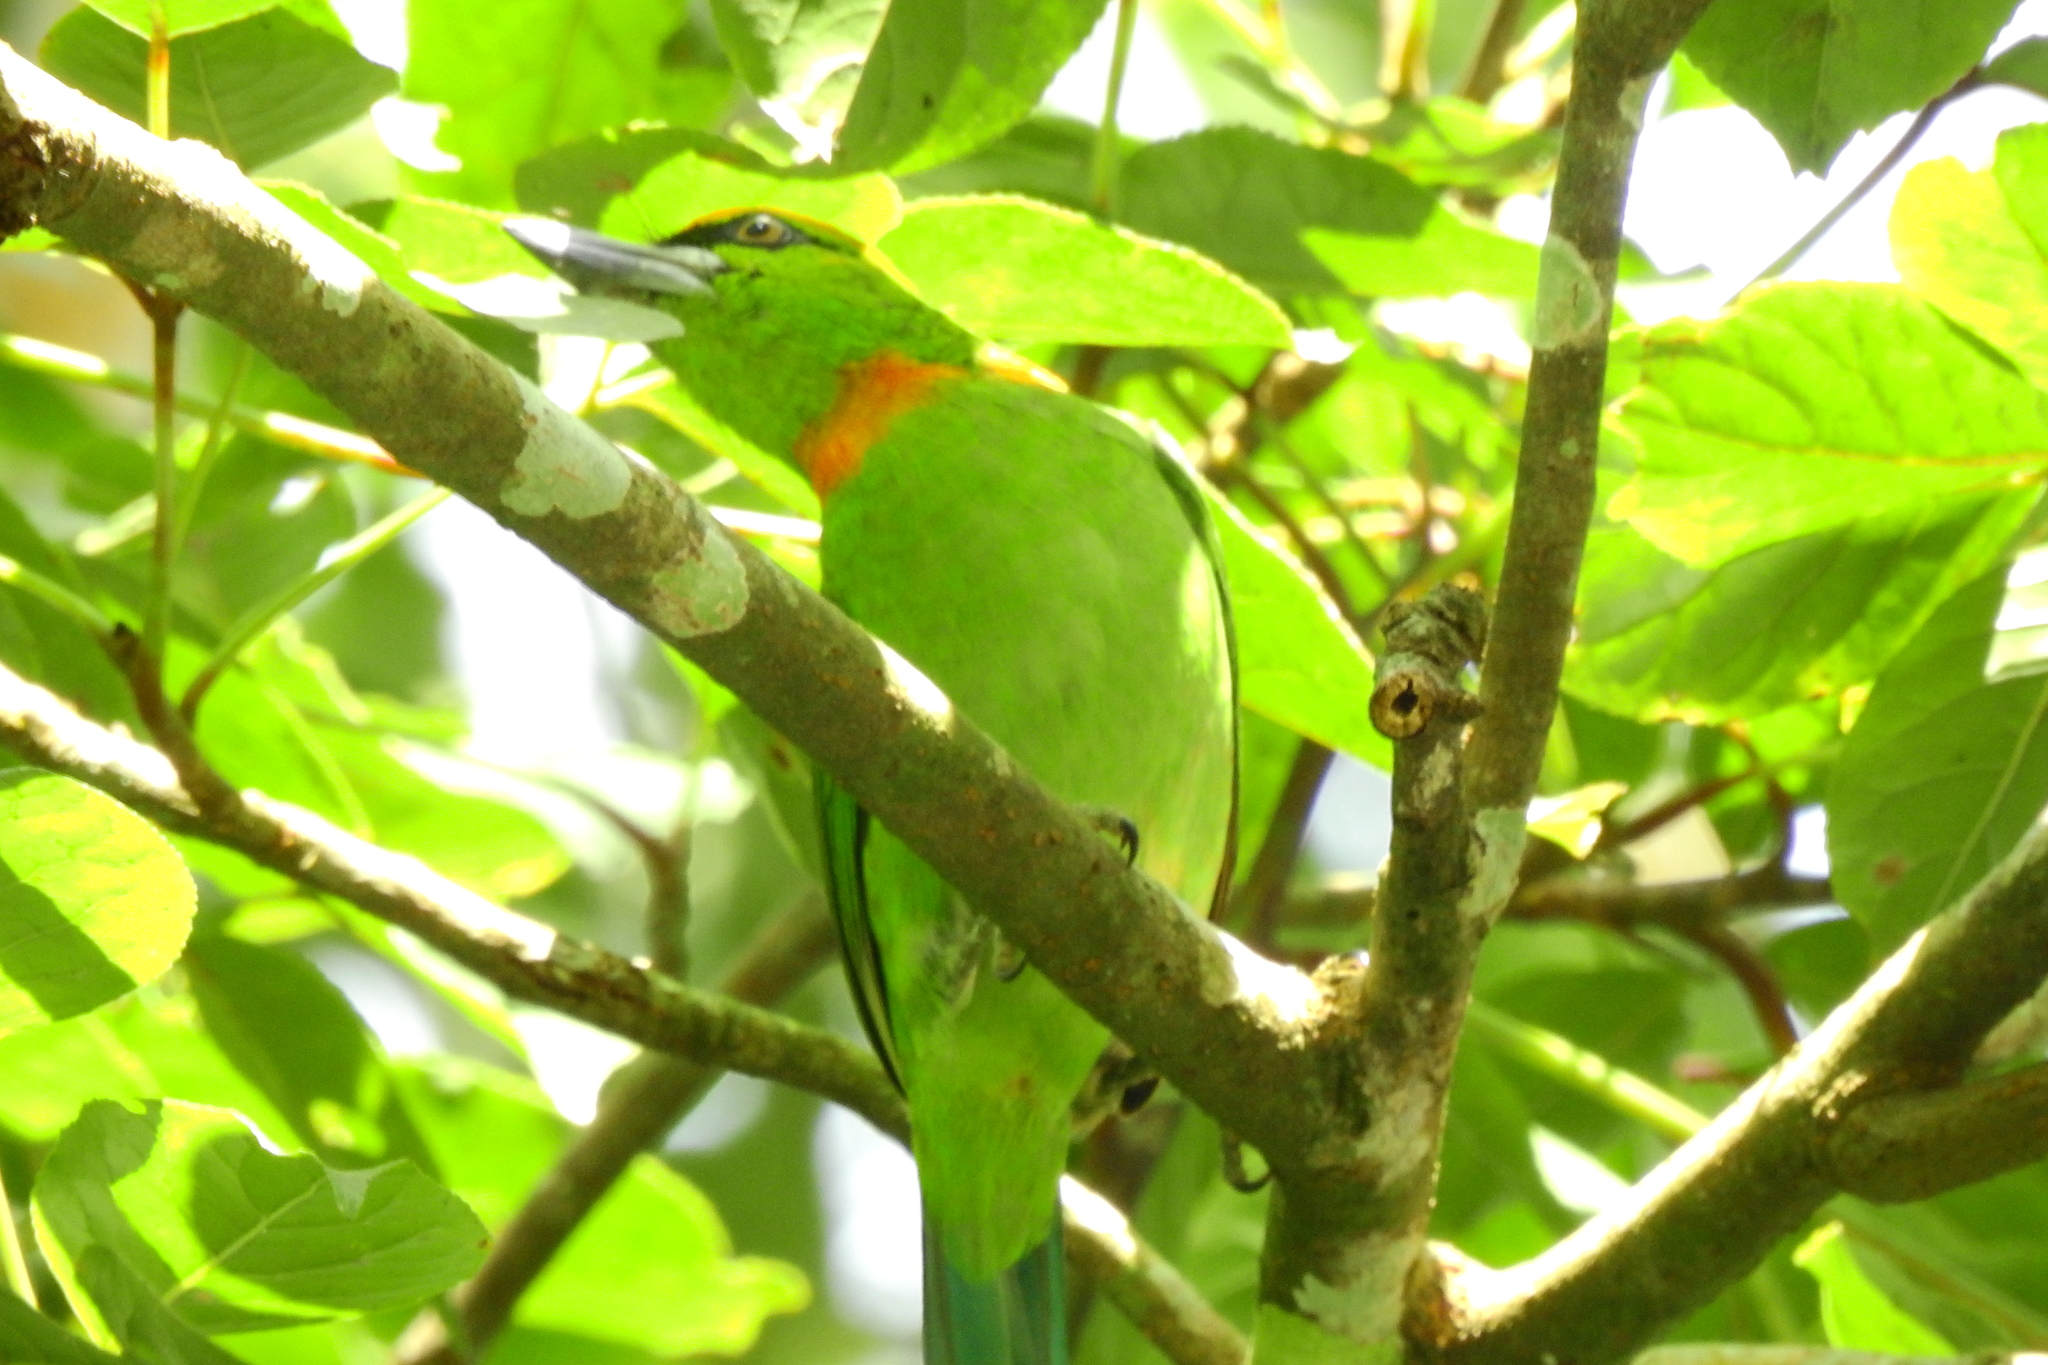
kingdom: Animalia
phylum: Chordata
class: Aves
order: Piciformes
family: Megalaimidae
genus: Psilopogon
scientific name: Psilopogon armillaris
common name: Flame-fronted barbet
